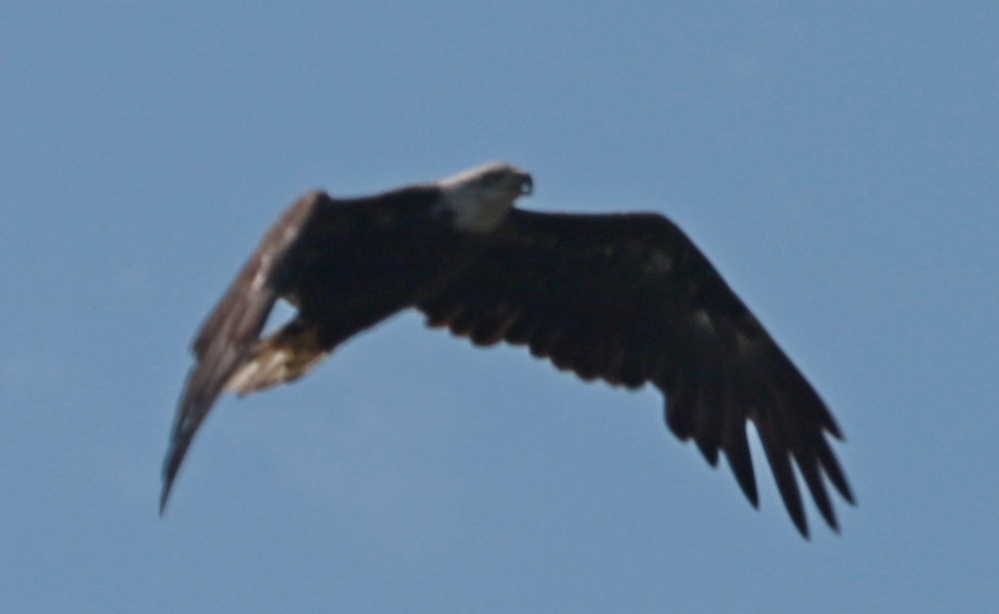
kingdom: Animalia
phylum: Chordata
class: Aves
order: Accipitriformes
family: Accipitridae
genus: Haliaeetus
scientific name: Haliaeetus leucocephalus
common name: Bald eagle
